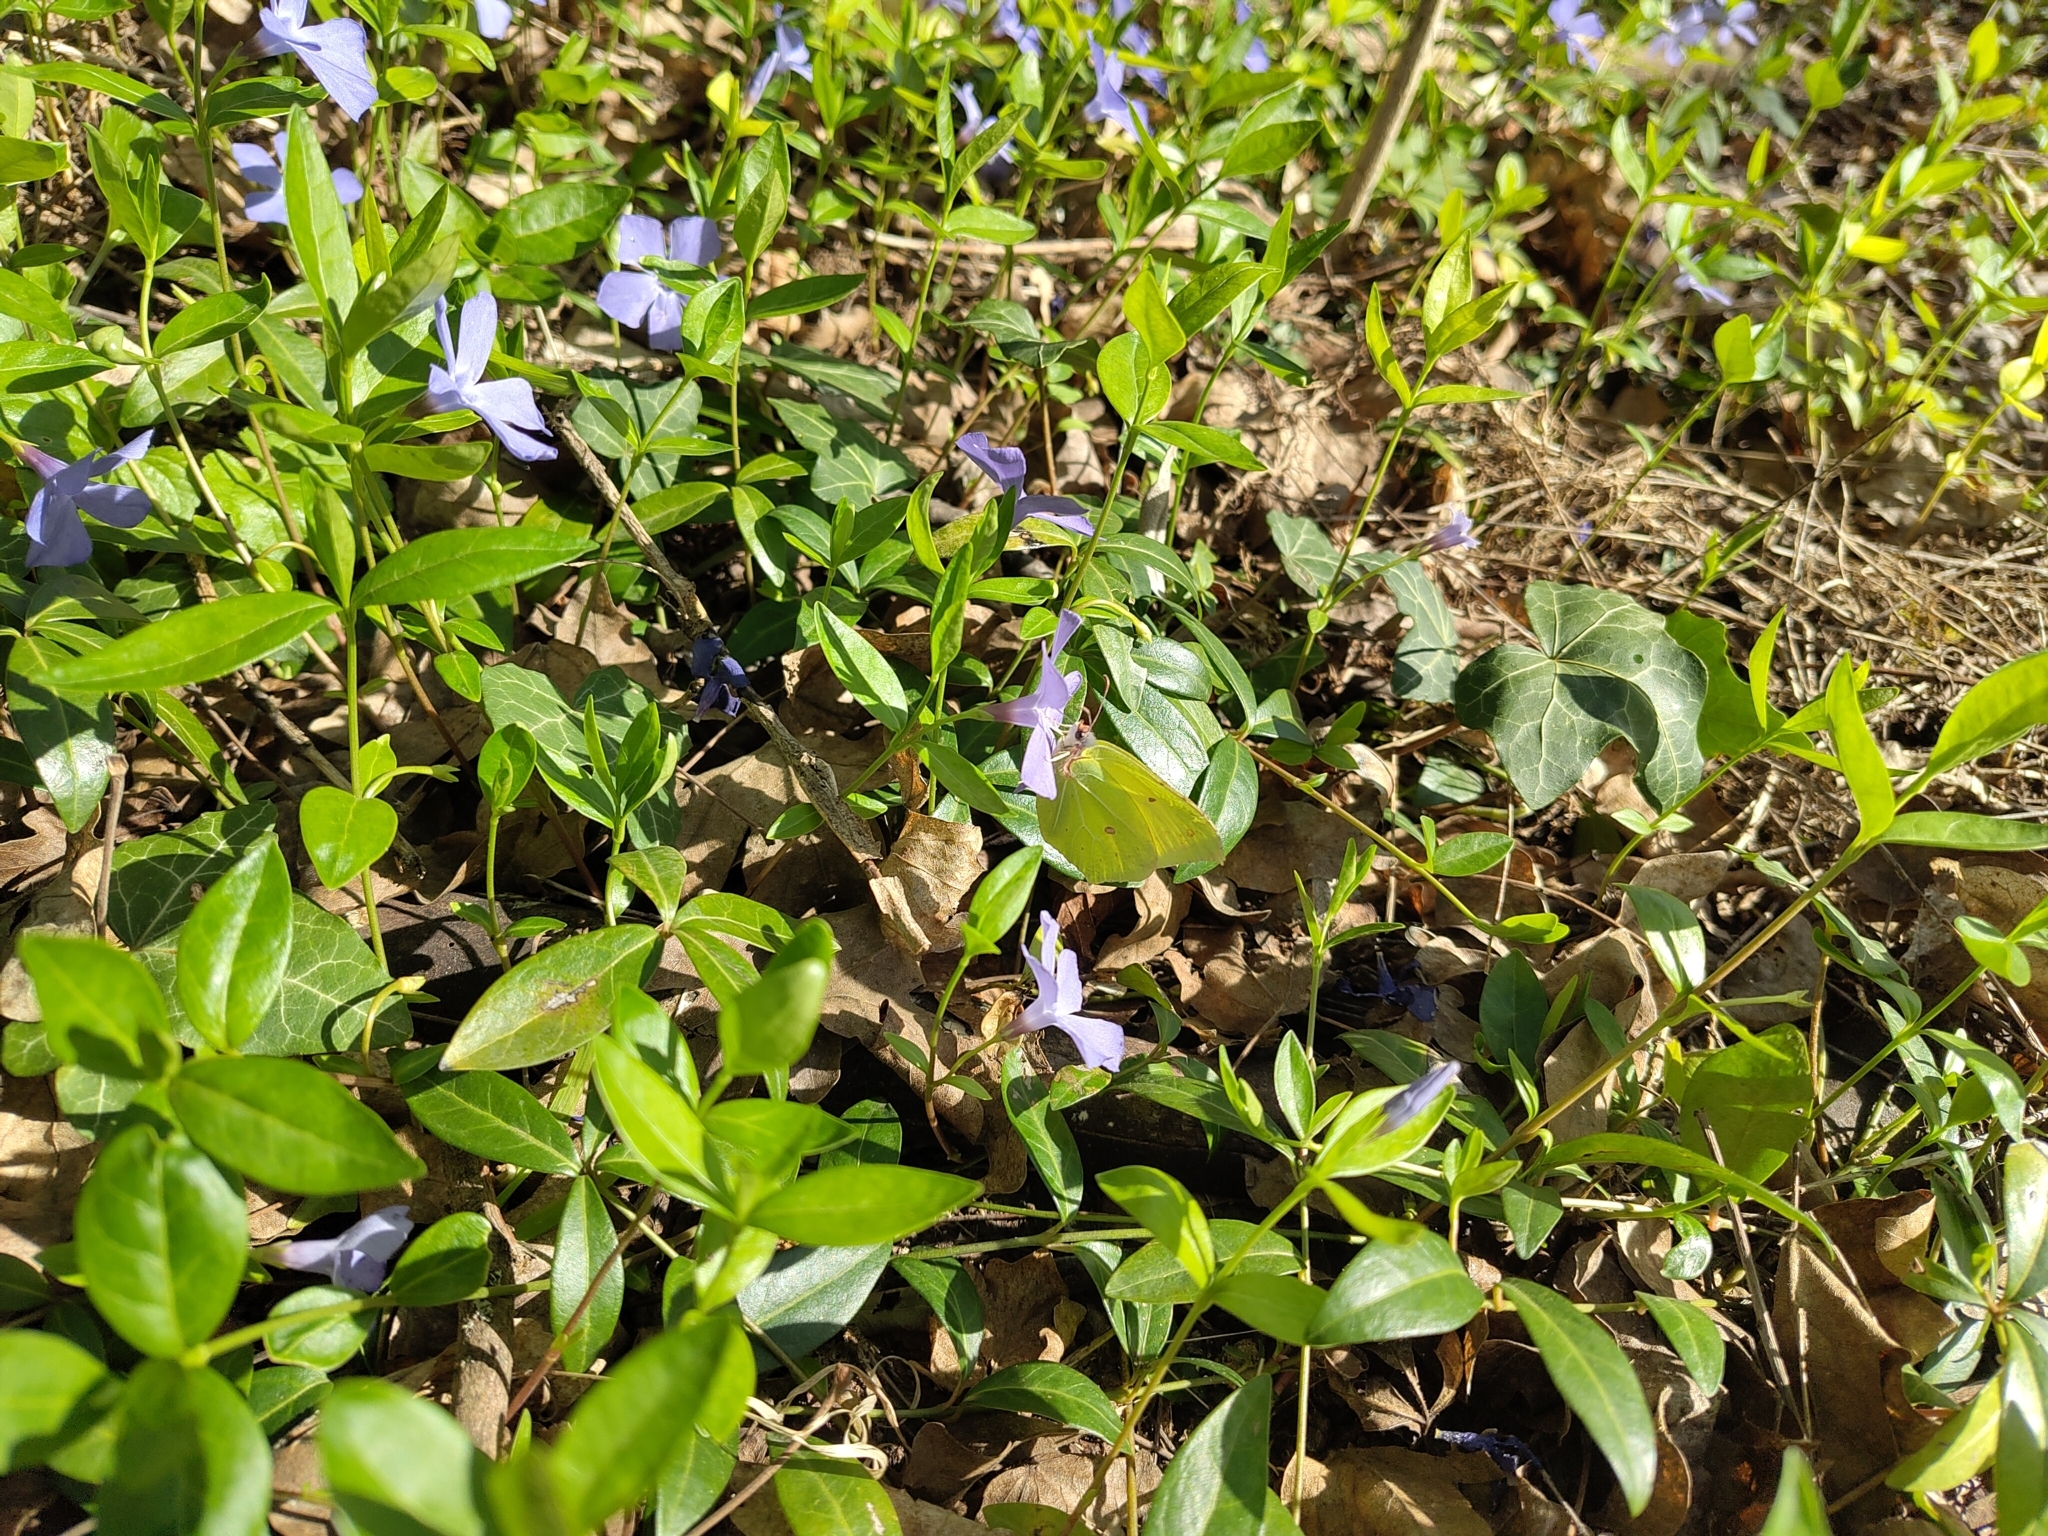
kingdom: Animalia
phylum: Arthropoda
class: Insecta
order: Lepidoptera
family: Pieridae
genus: Gonepteryx
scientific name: Gonepteryx rhamni
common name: Brimstone
